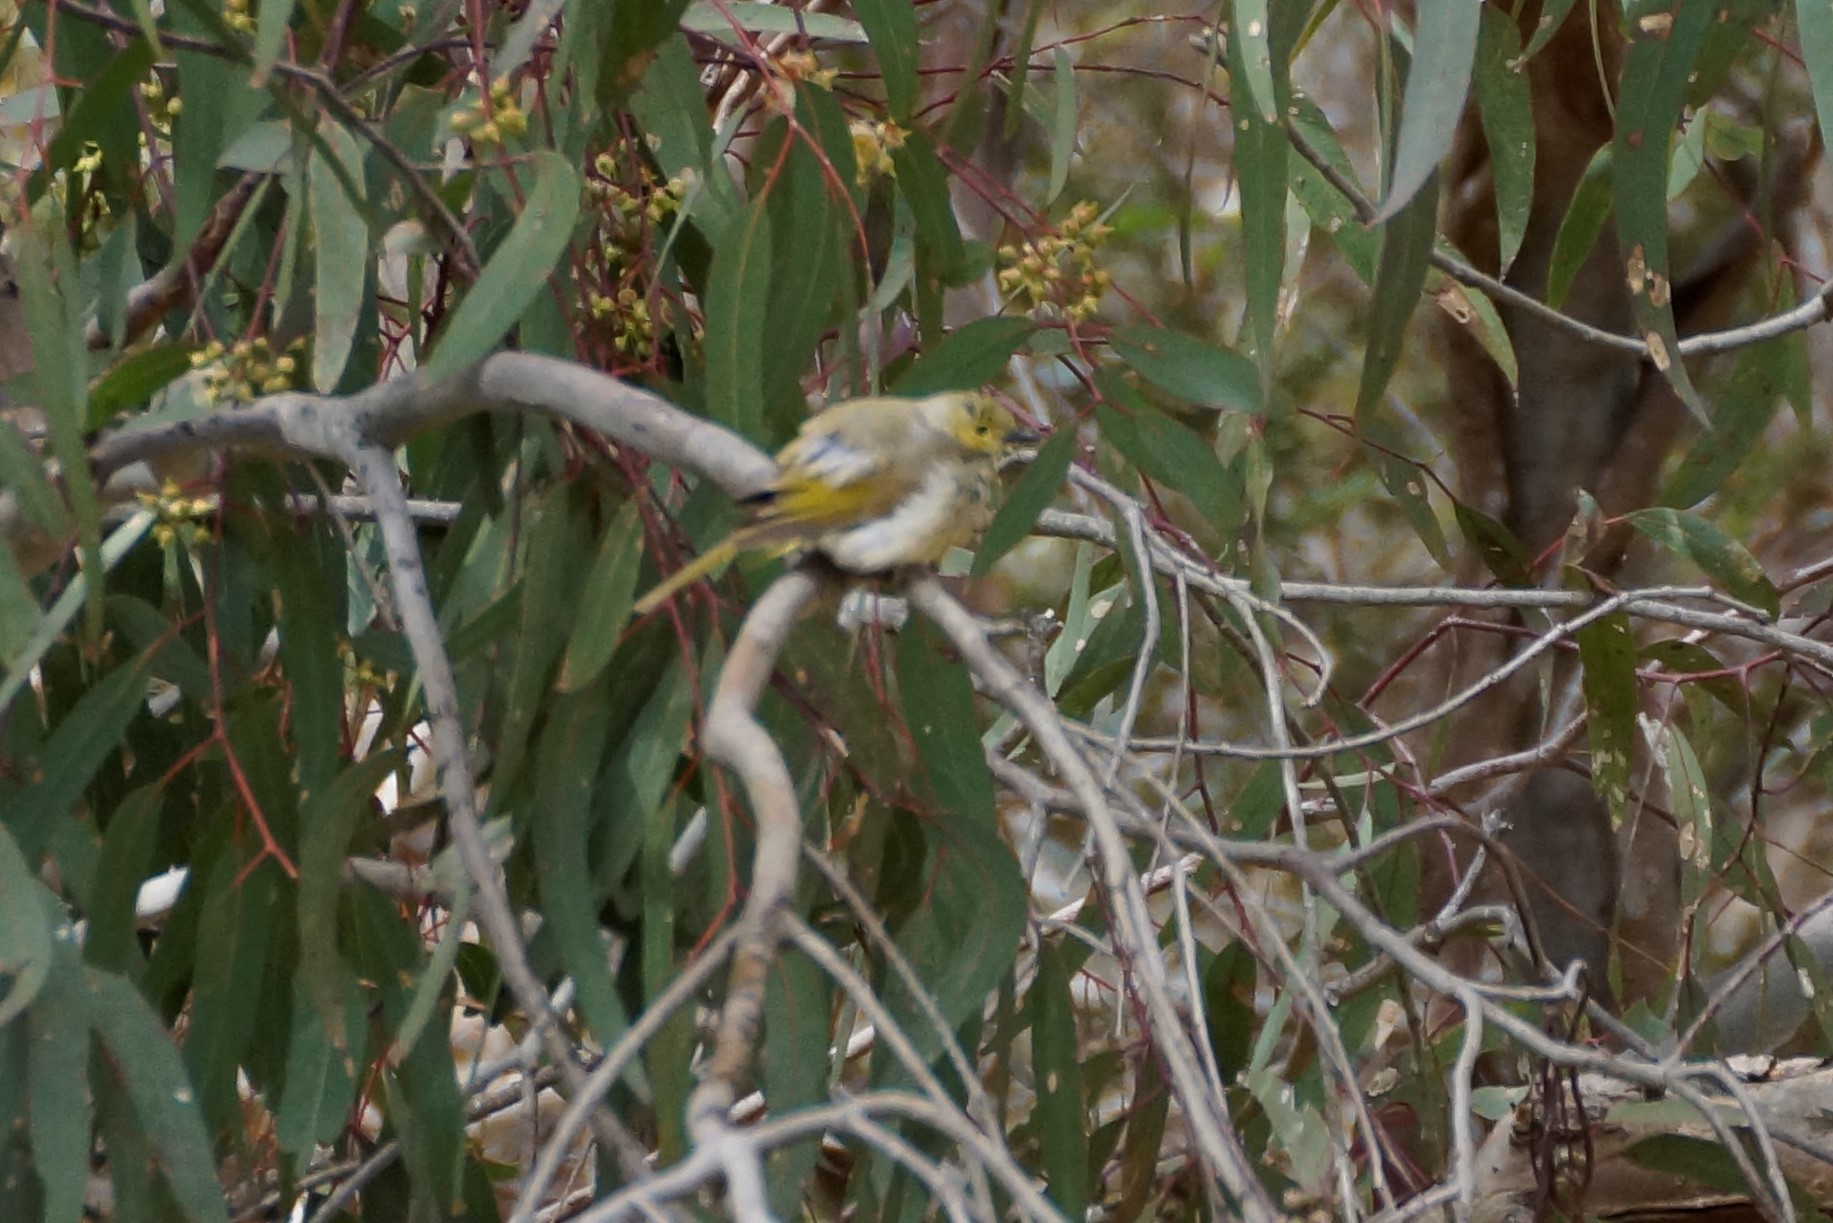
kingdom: Animalia
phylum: Chordata
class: Aves
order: Passeriformes
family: Meliphagidae
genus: Ptilotula
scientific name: Ptilotula penicillata
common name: White-plumed honeyeater
